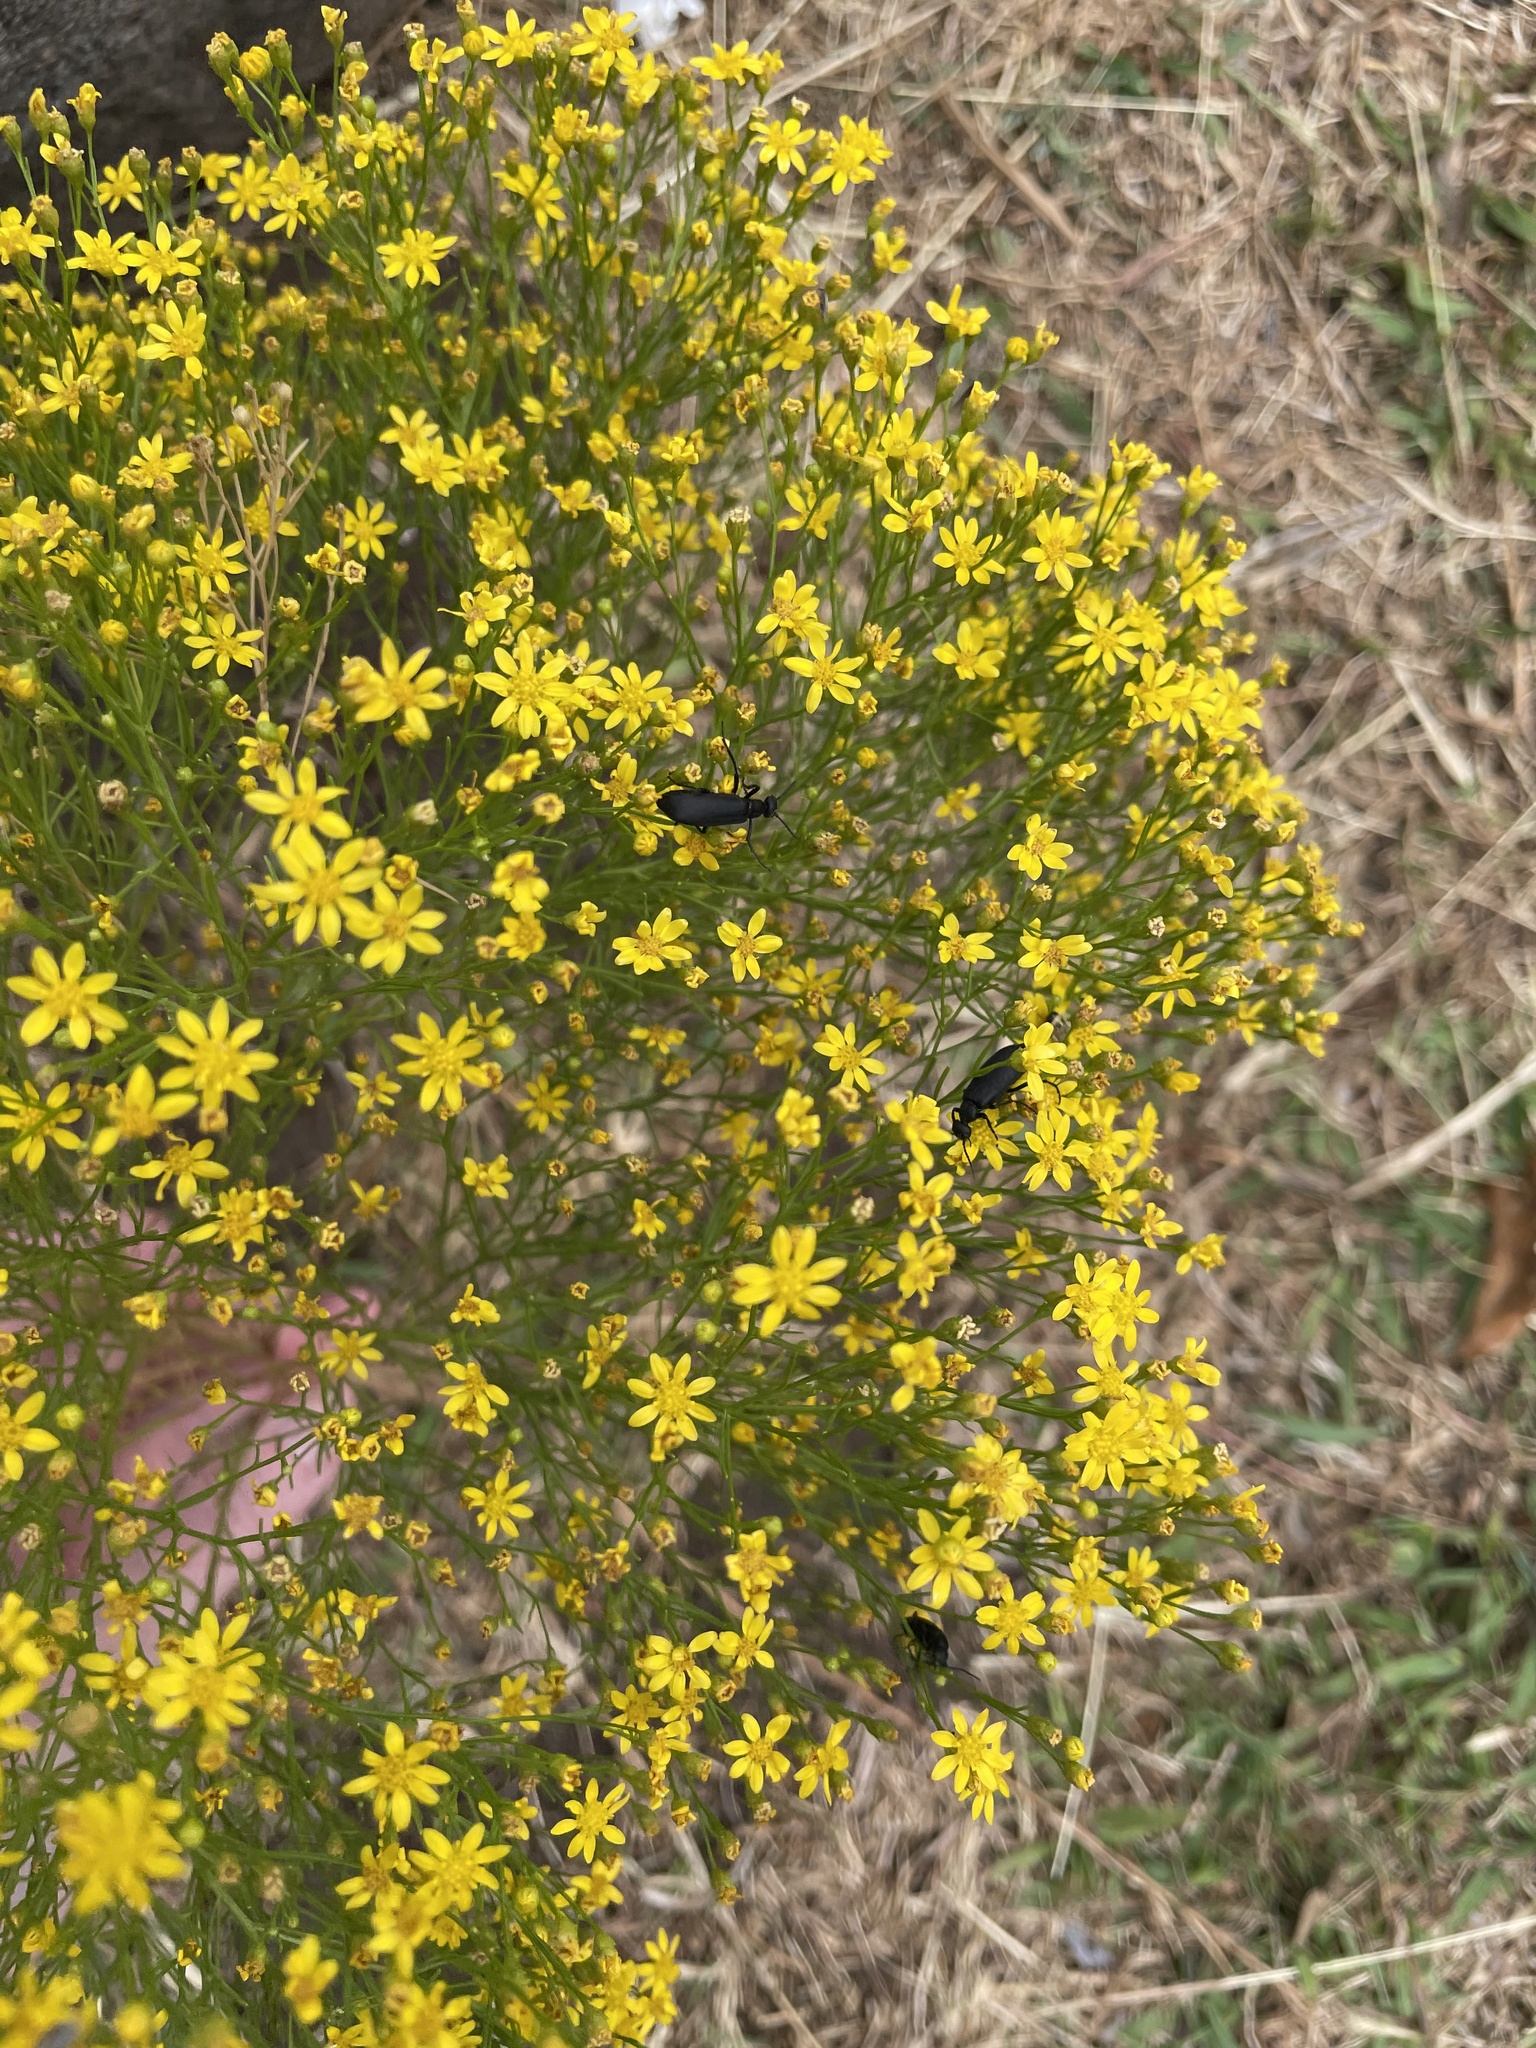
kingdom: Animalia
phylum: Arthropoda
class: Insecta
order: Coleoptera
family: Meloidae
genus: Epicauta
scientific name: Epicauta pensylvanica
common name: Black blister beetle
